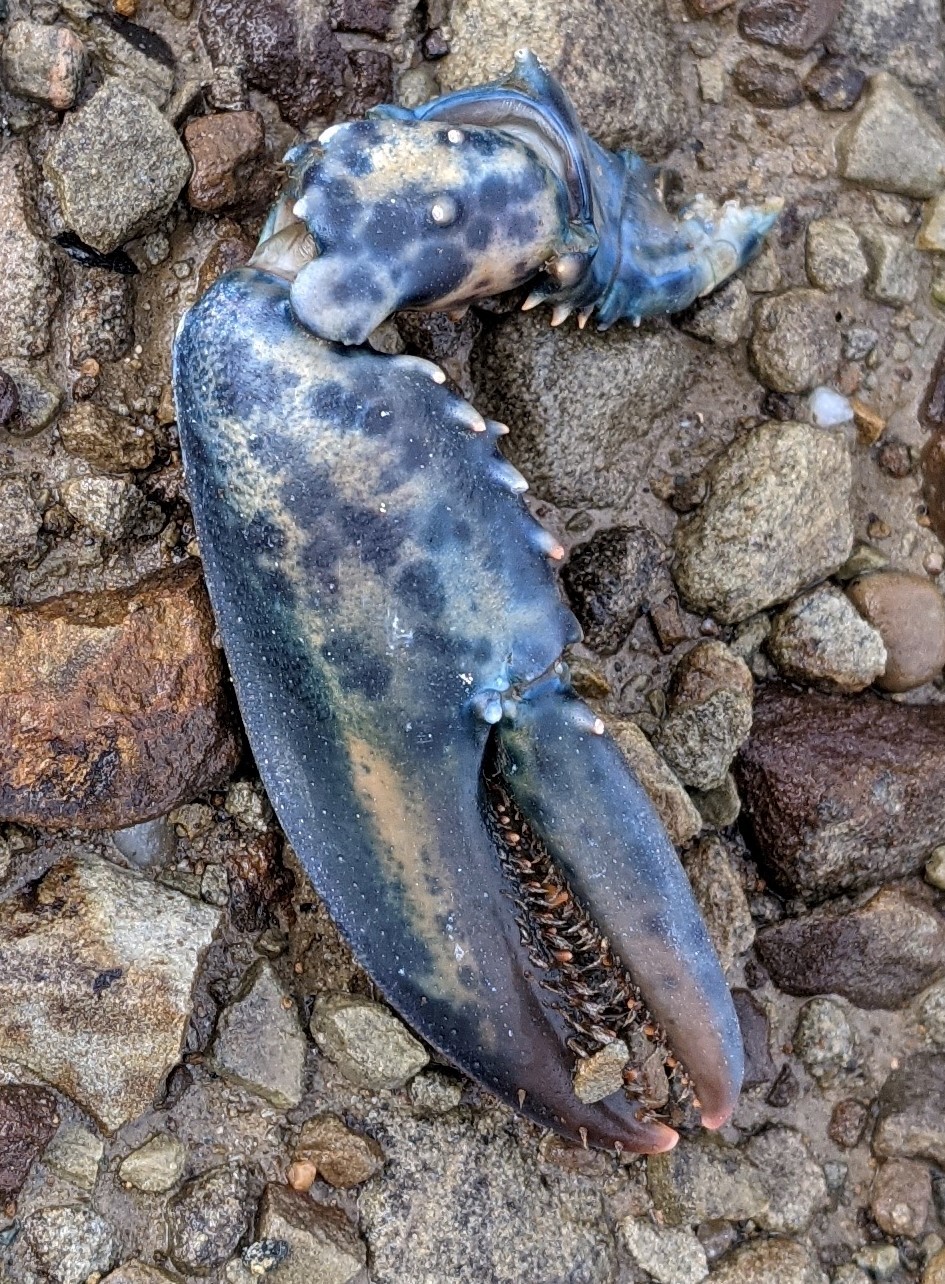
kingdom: Animalia
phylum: Arthropoda
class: Malacostraca
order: Decapoda
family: Nephropidae
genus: Homarus
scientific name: Homarus americanus
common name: American lobster
